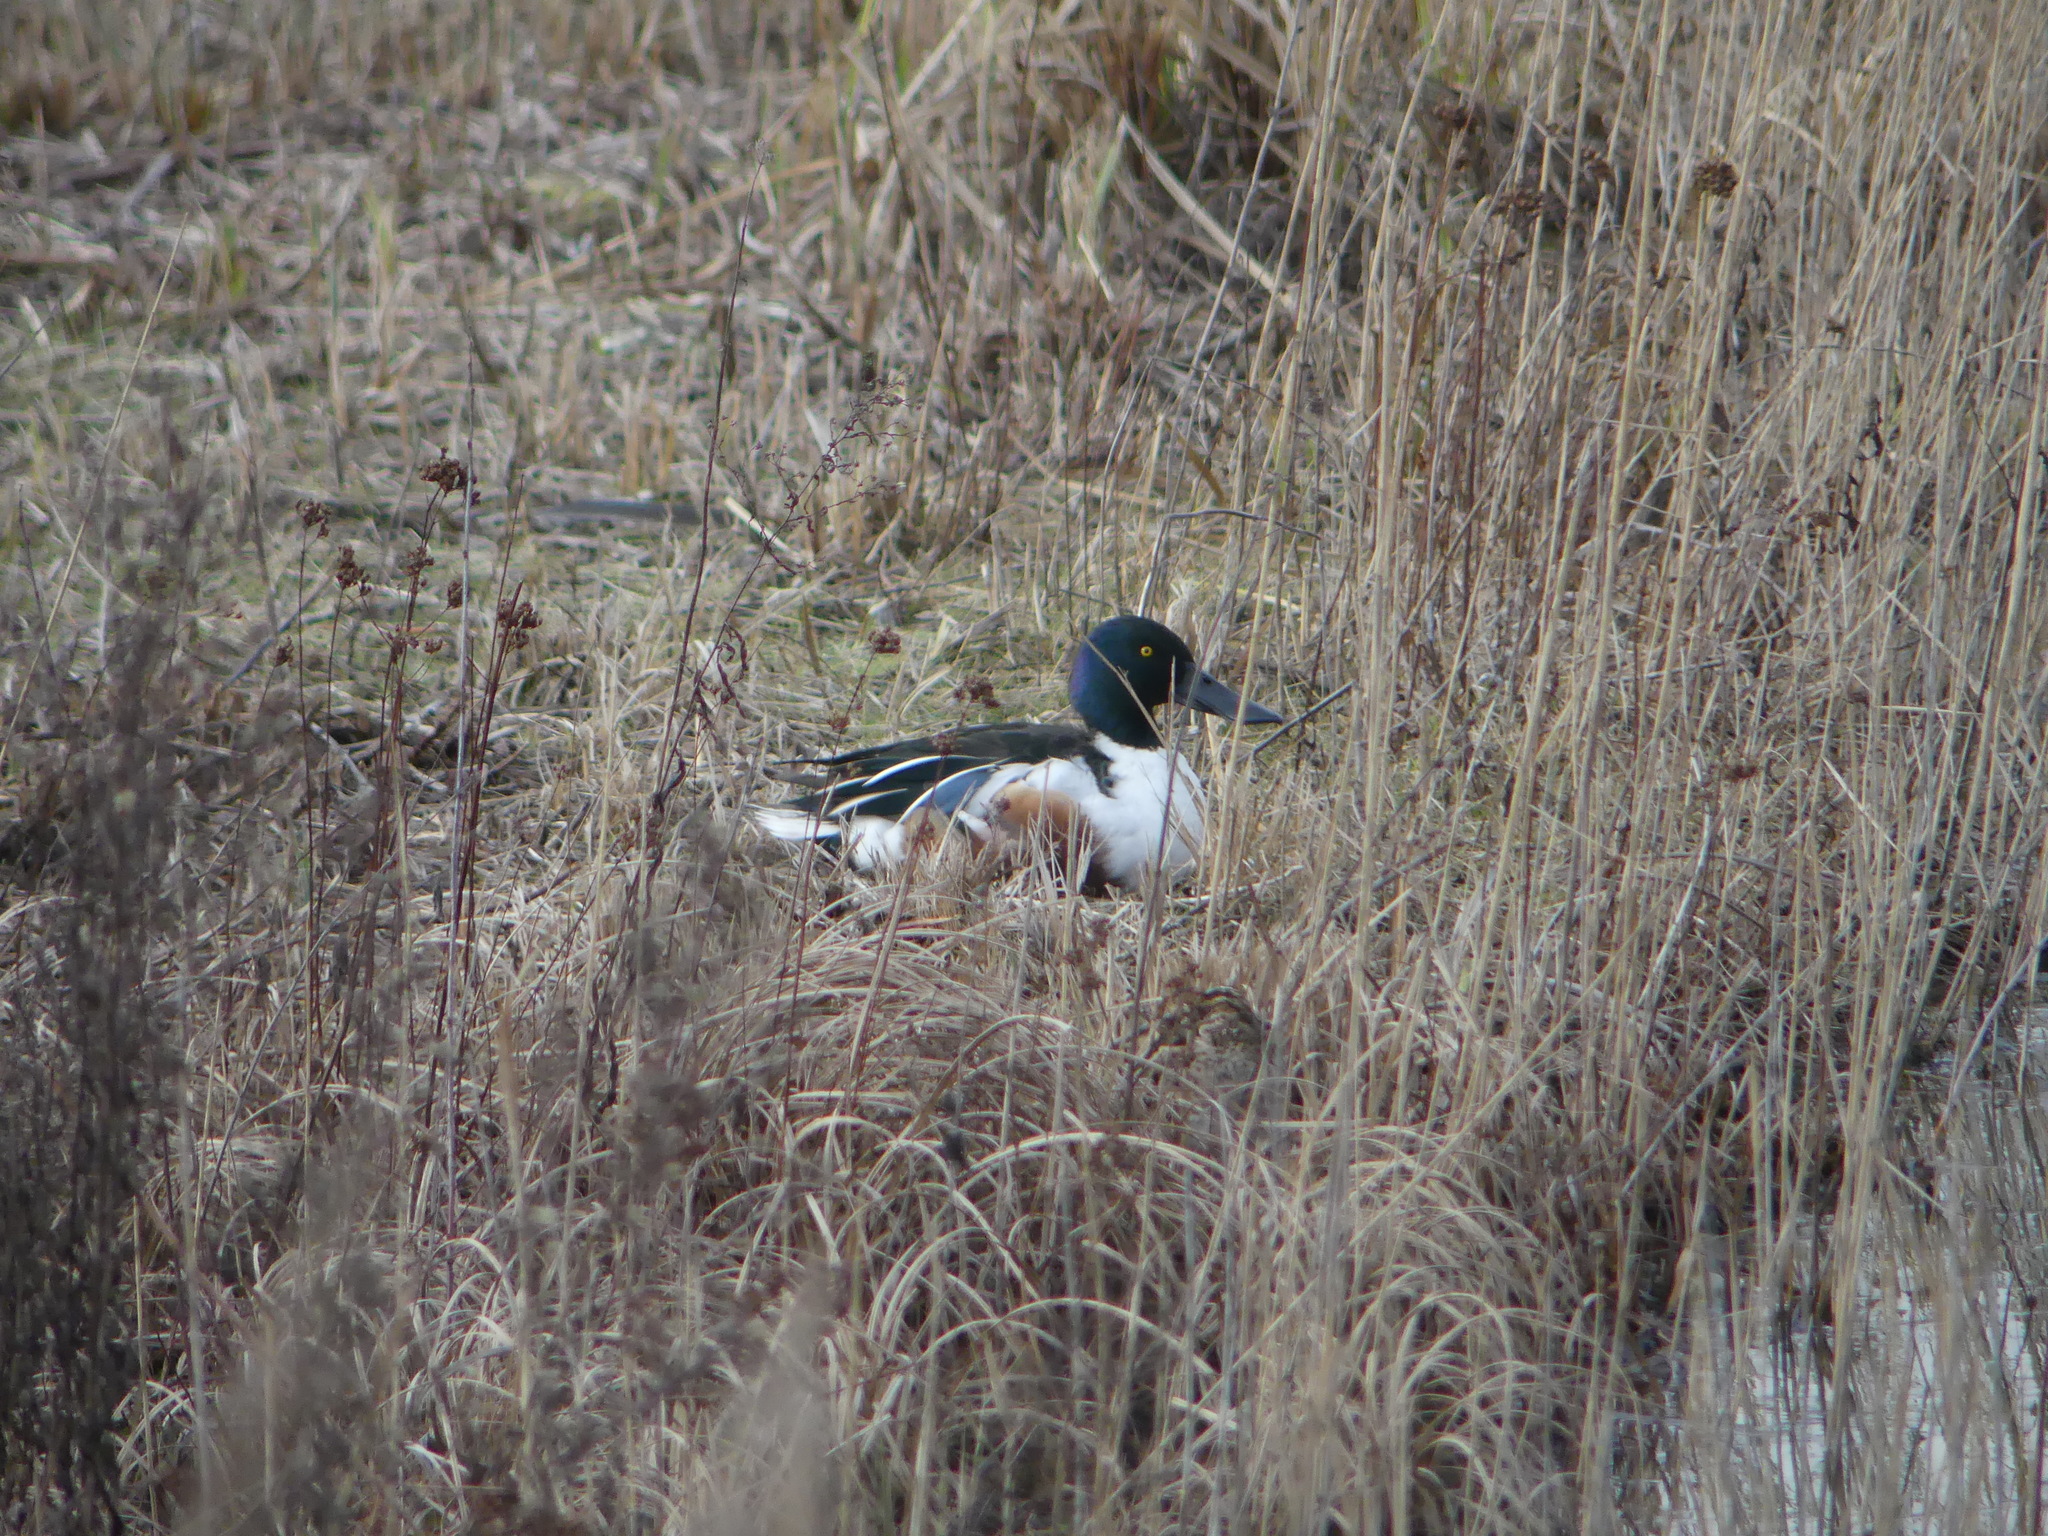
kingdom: Animalia
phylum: Chordata
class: Aves
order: Anseriformes
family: Anatidae
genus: Spatula
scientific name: Spatula clypeata
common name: Northern shoveler
